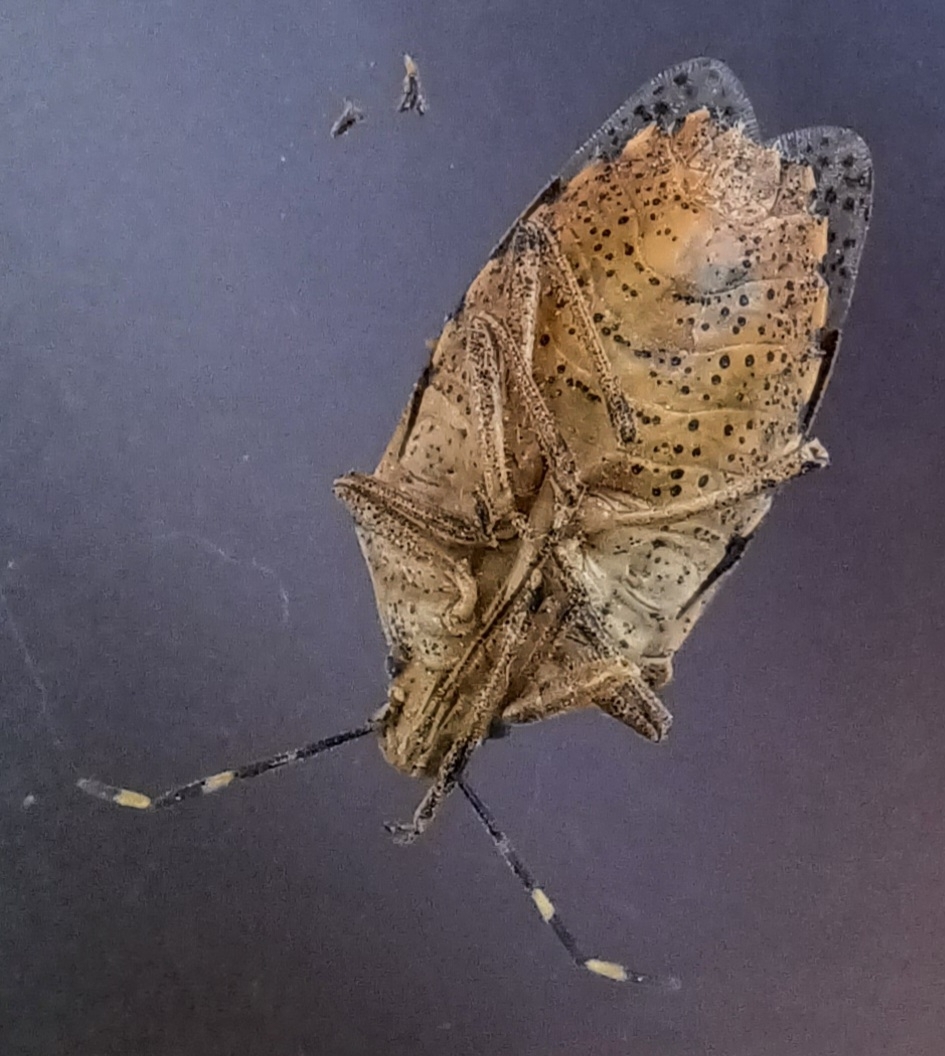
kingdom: Animalia
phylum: Arthropoda
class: Insecta
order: Hemiptera
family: Pentatomidae
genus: Rhaphigaster
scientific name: Rhaphigaster nebulosa
